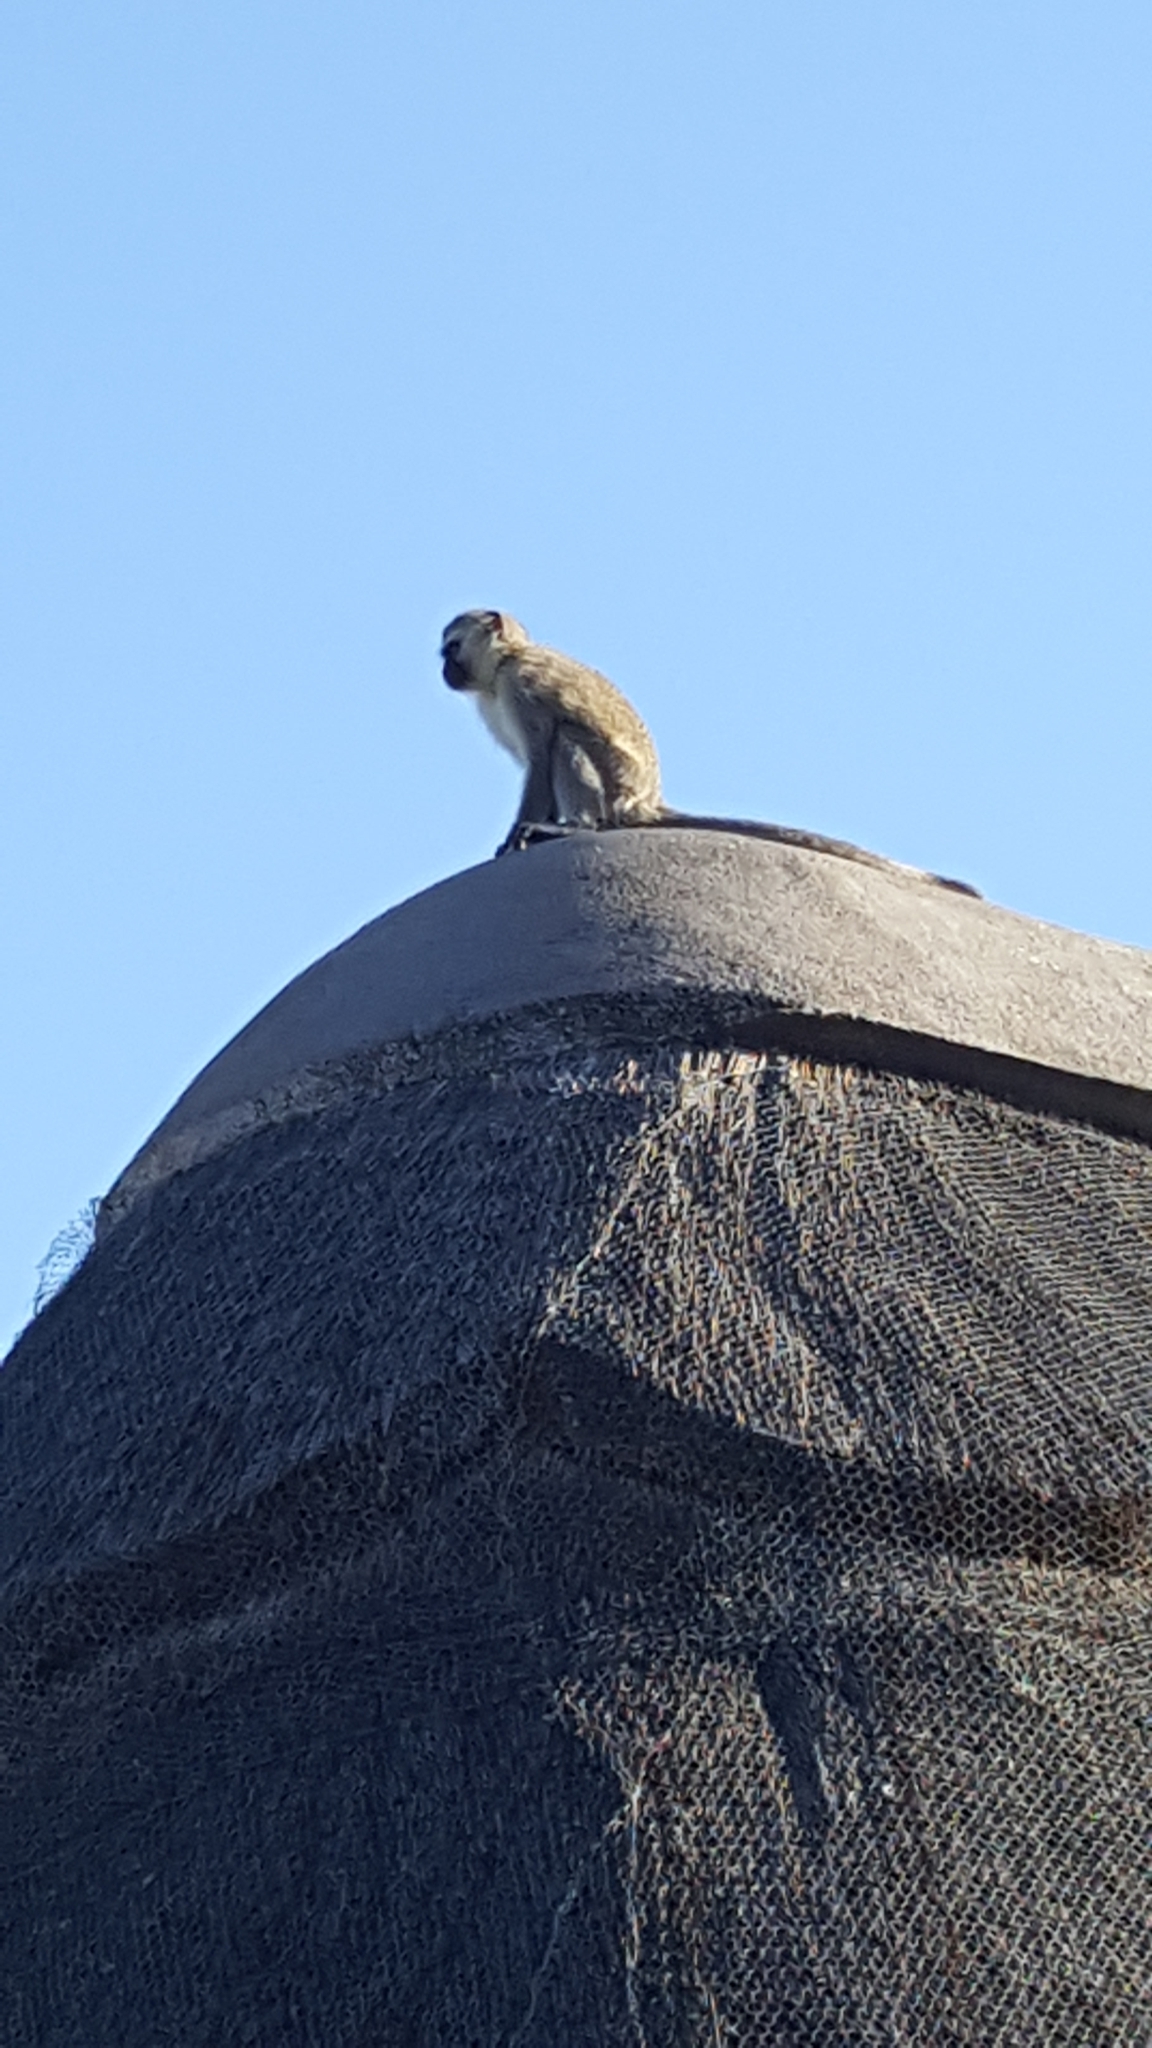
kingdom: Animalia
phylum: Chordata
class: Mammalia
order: Primates
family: Cercopithecidae
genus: Chlorocebus
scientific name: Chlorocebus pygerythrus
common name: Vervet monkey
